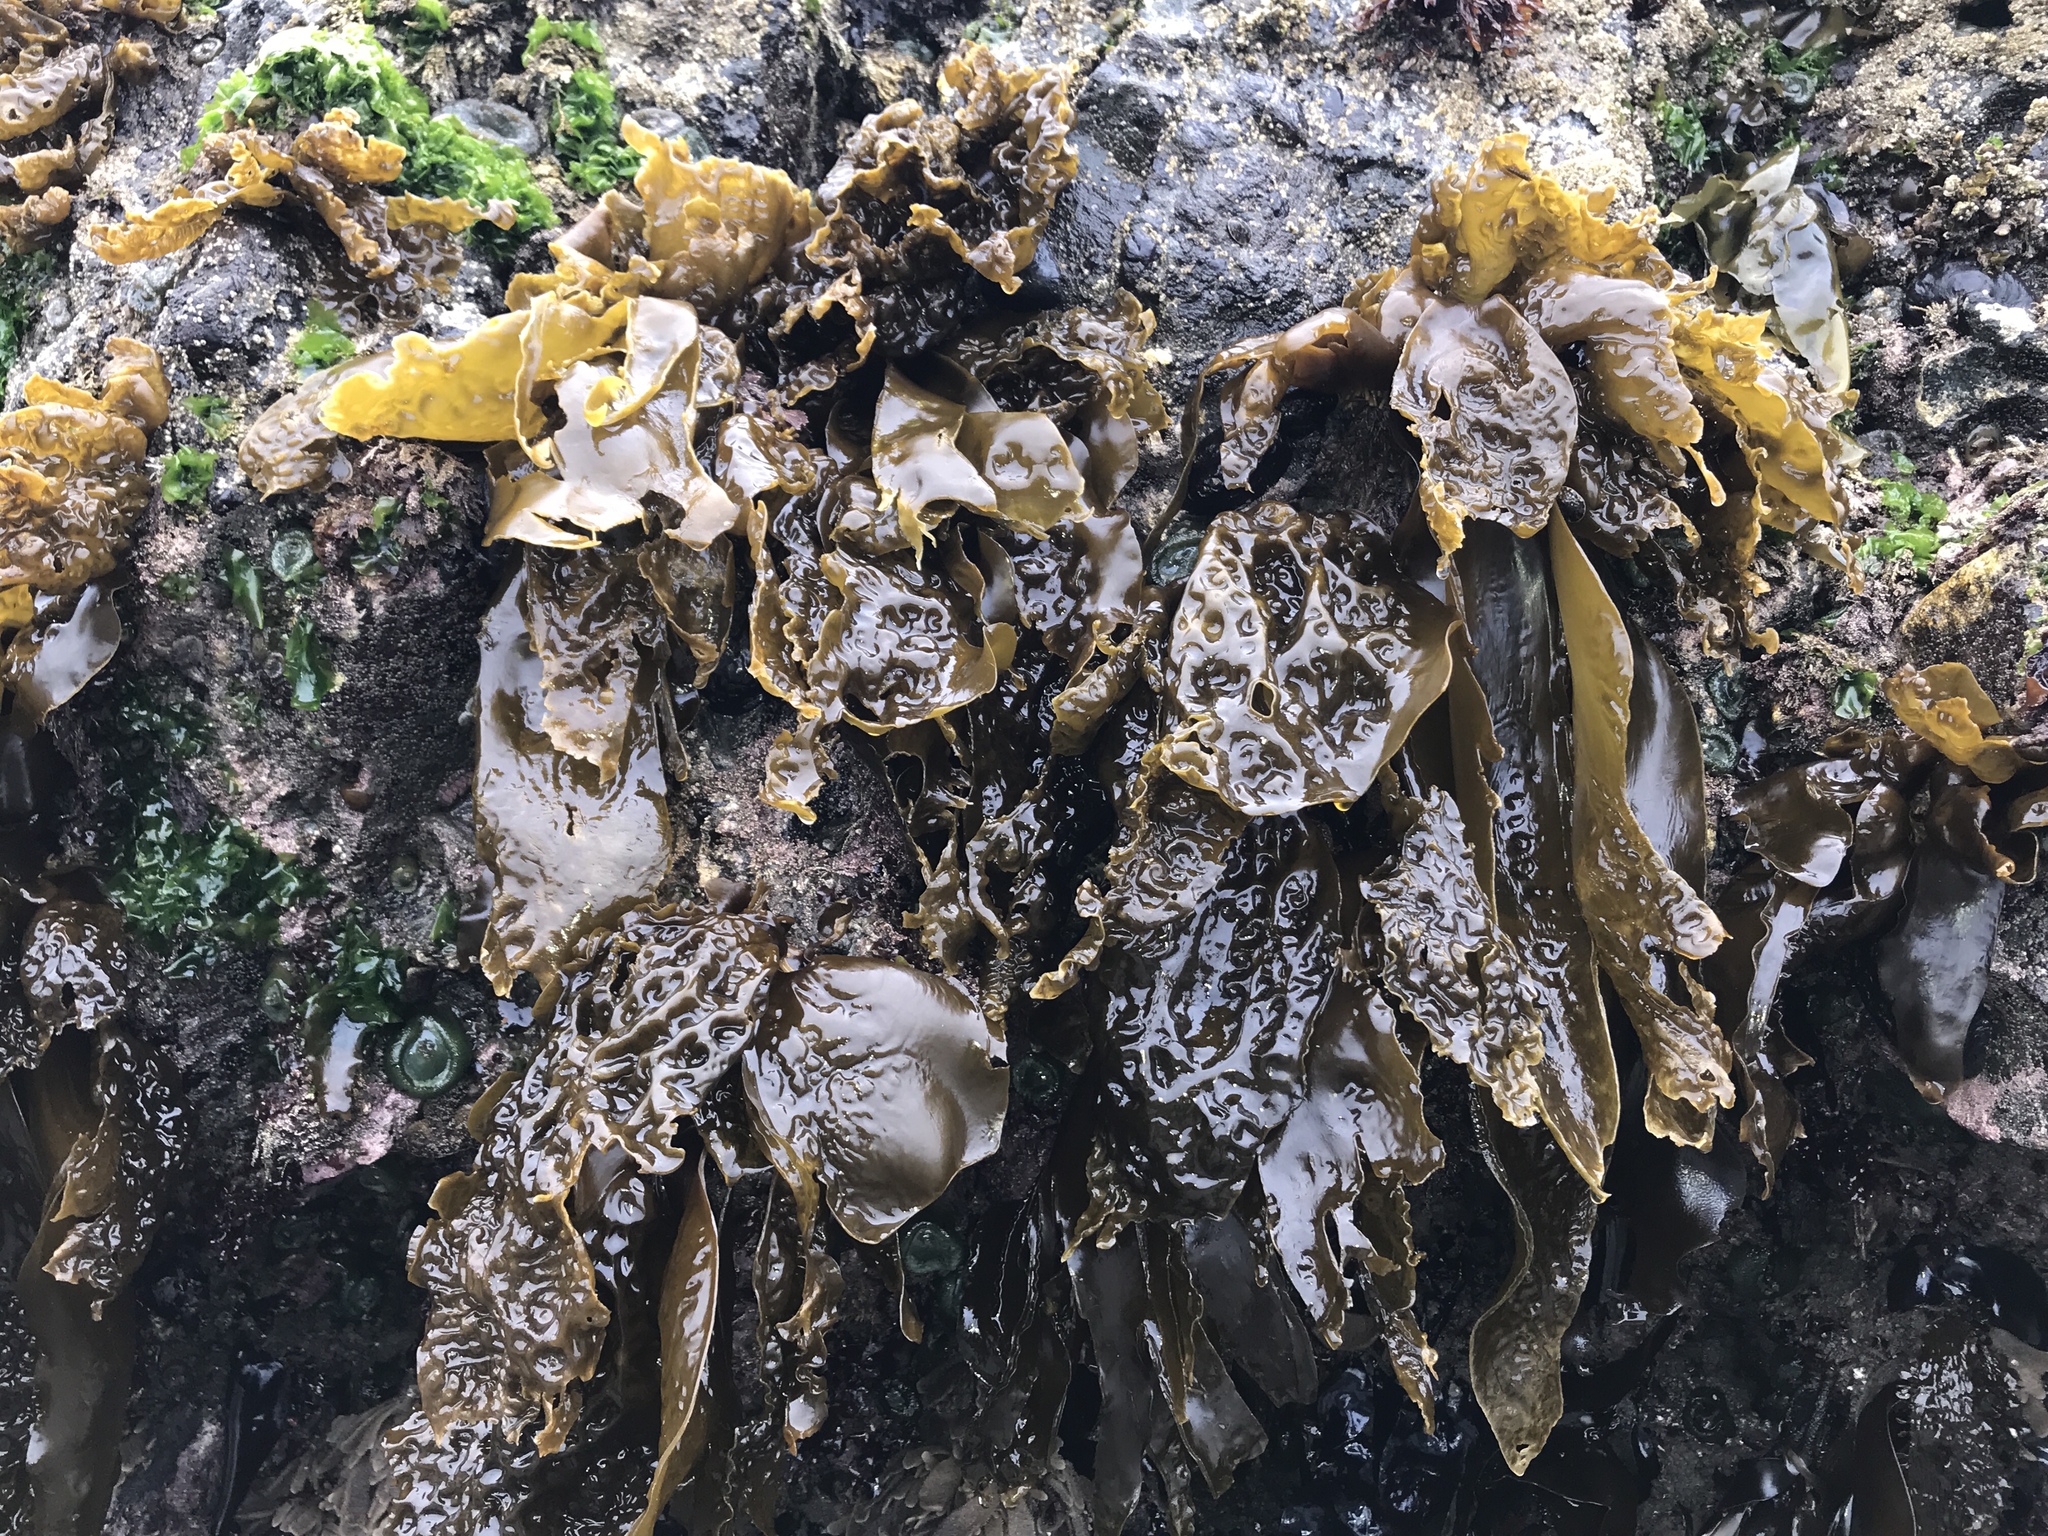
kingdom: Chromista
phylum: Ochrophyta
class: Phaeophyceae
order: Laminariales
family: Laminariaceae
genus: Hedophyllum
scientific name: Hedophyllum sessile
